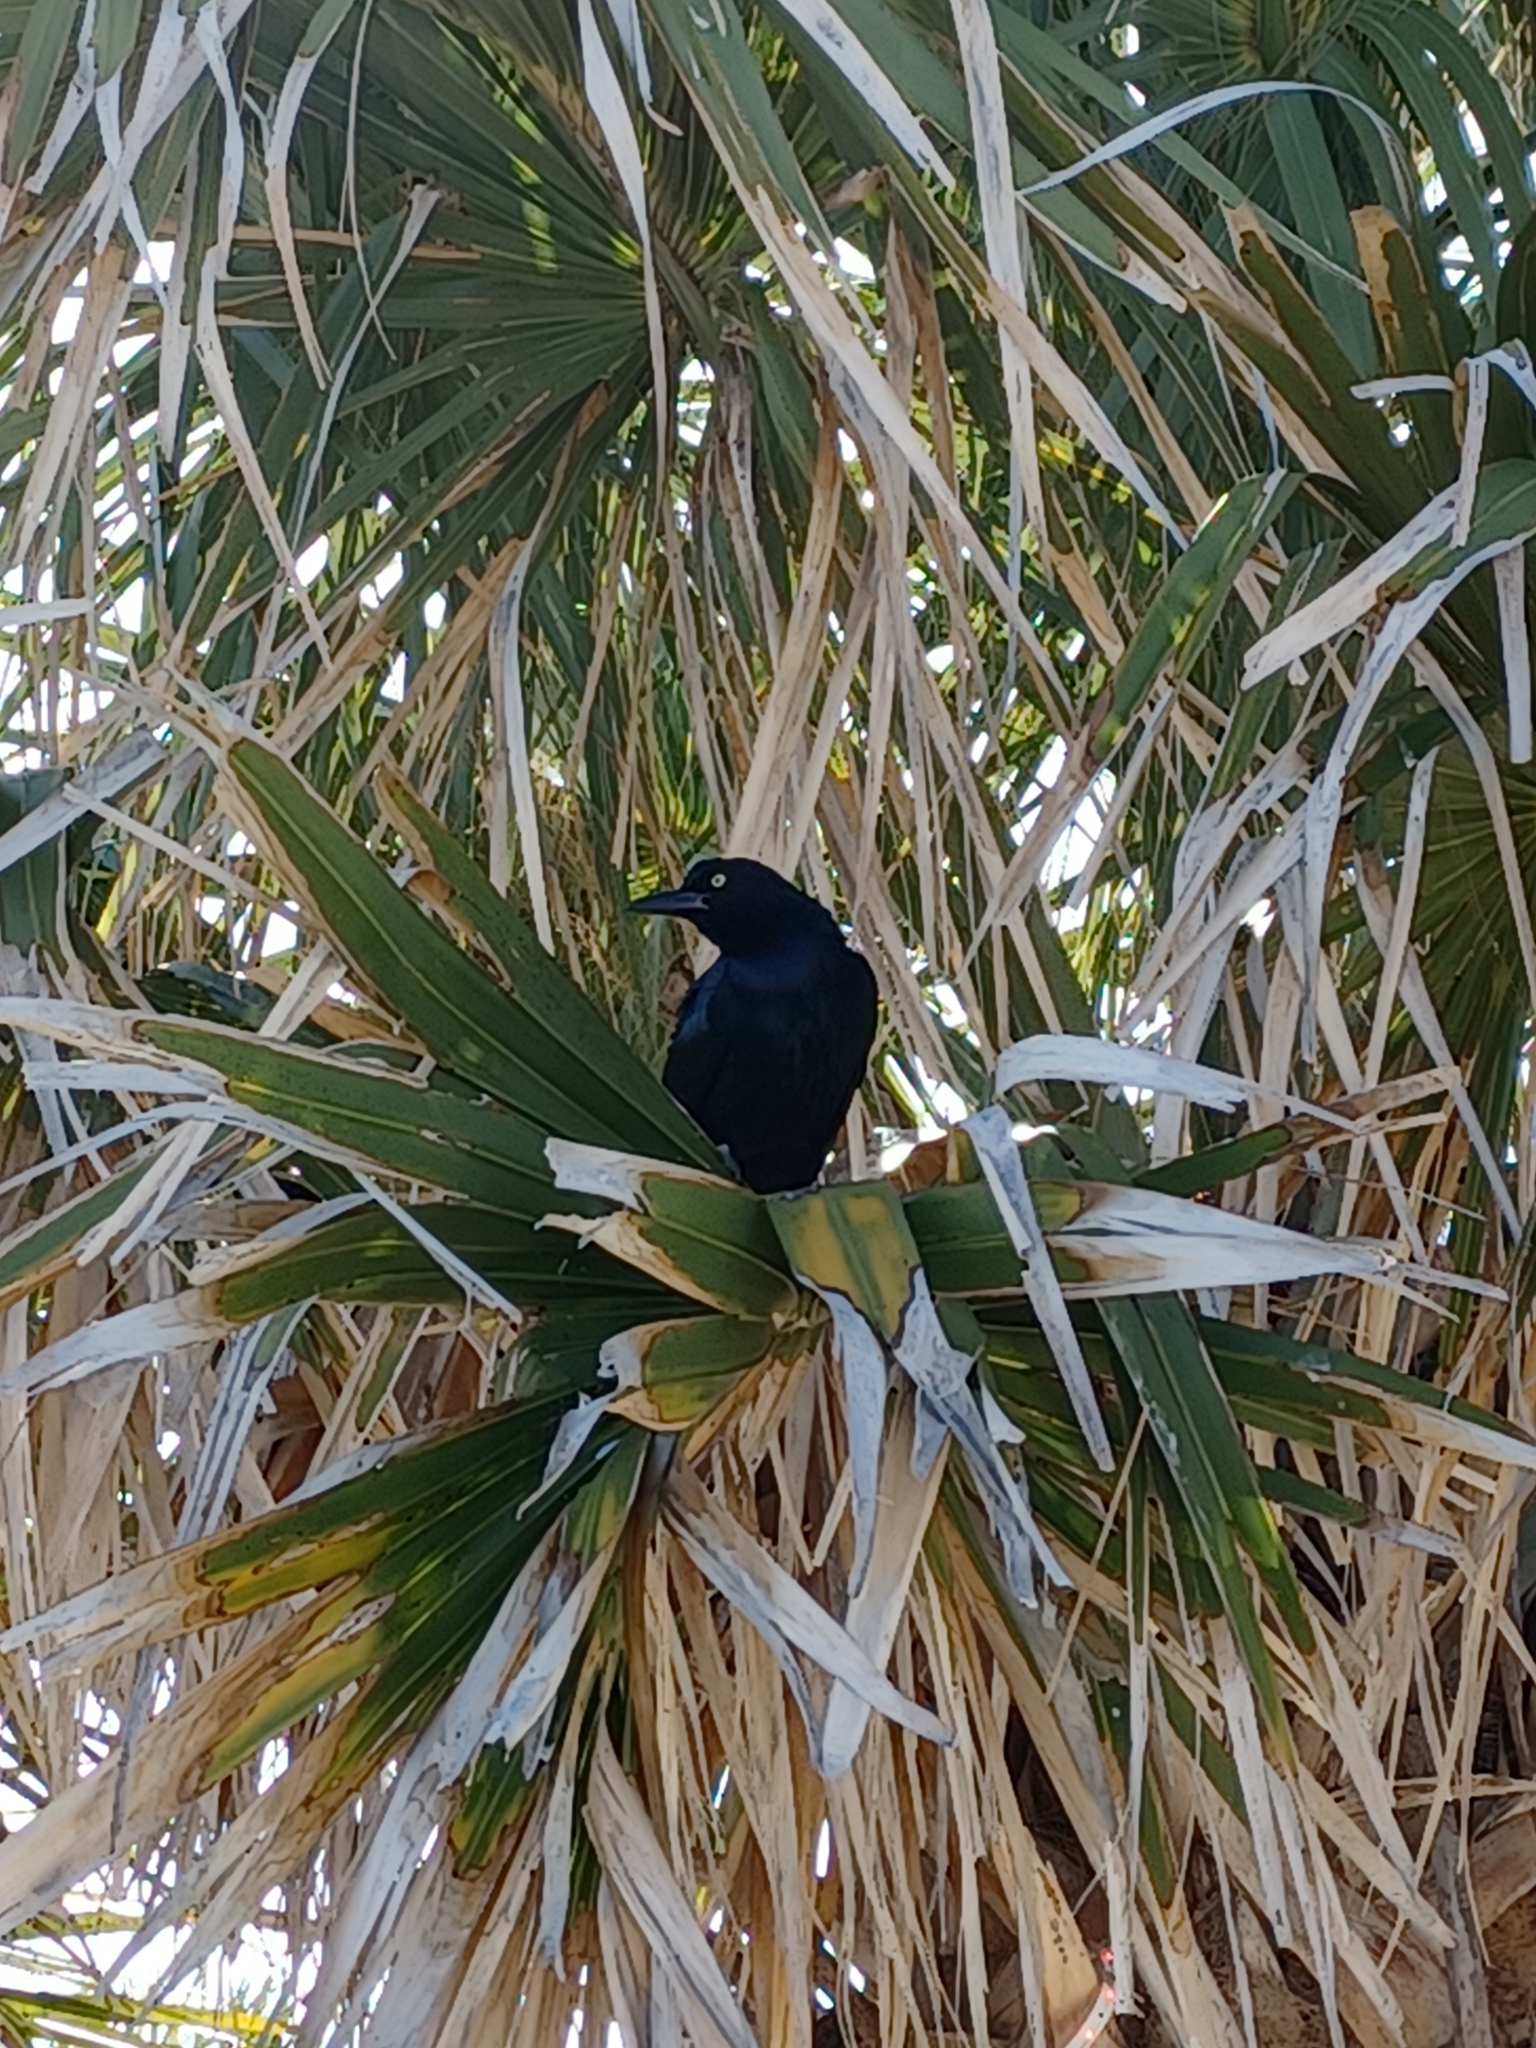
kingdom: Animalia
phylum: Chordata
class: Aves
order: Passeriformes
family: Icteridae
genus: Quiscalus
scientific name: Quiscalus major
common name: Boat-tailed grackle
